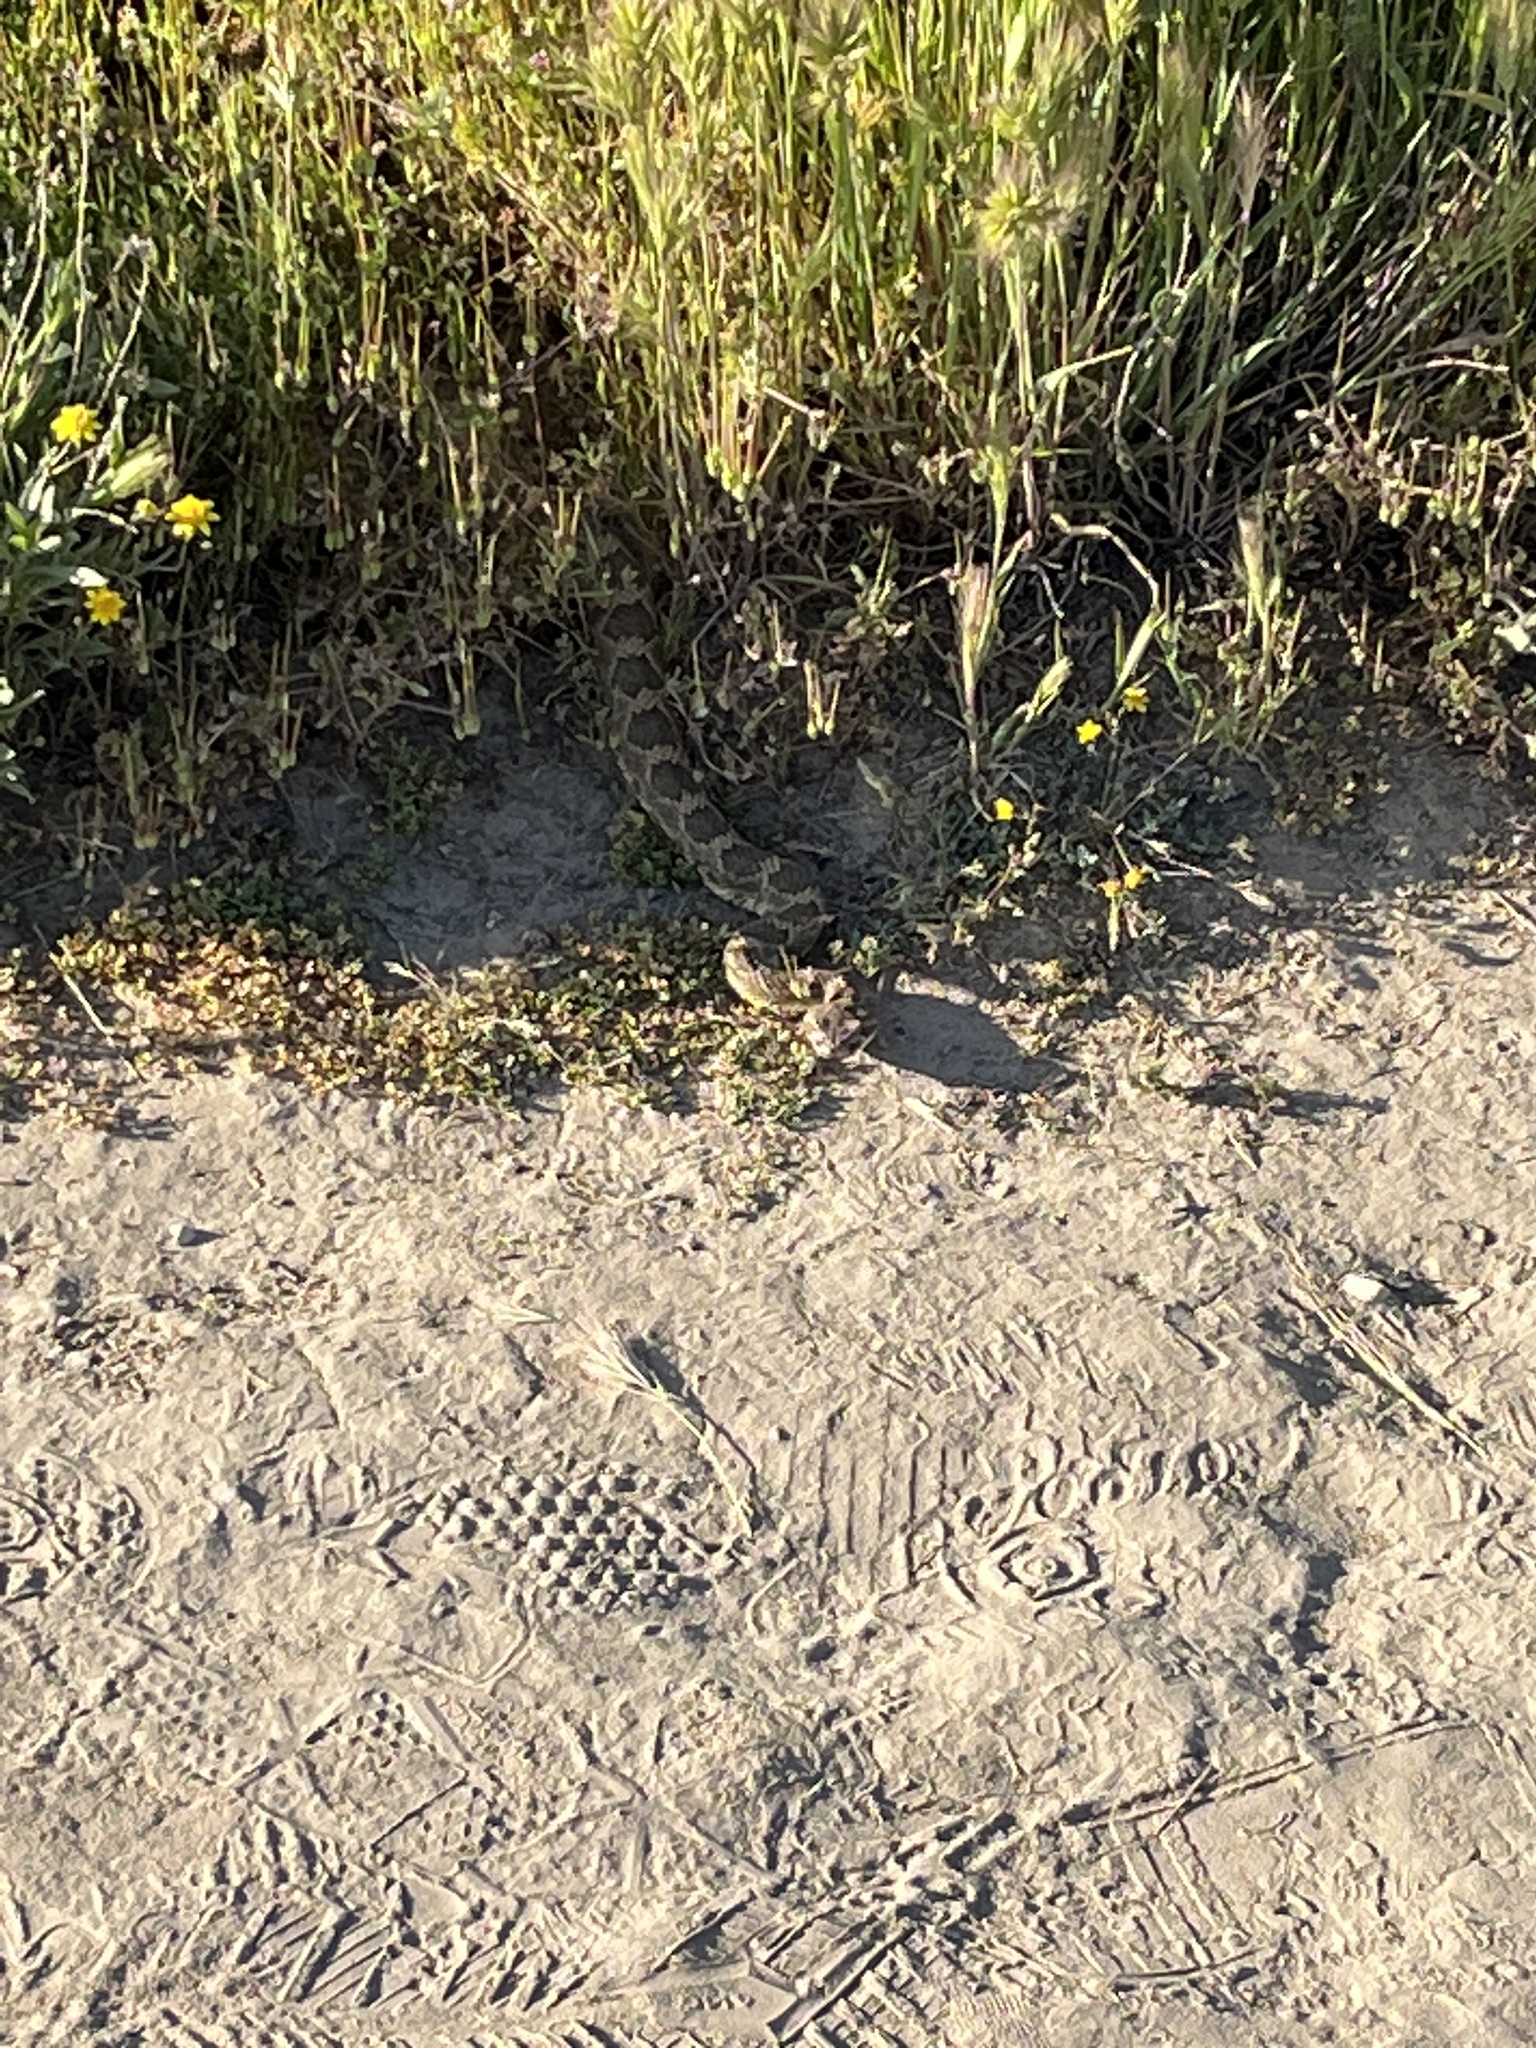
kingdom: Animalia
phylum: Chordata
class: Squamata
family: Viperidae
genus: Crotalus
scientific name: Crotalus oreganus
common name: Abyssus
